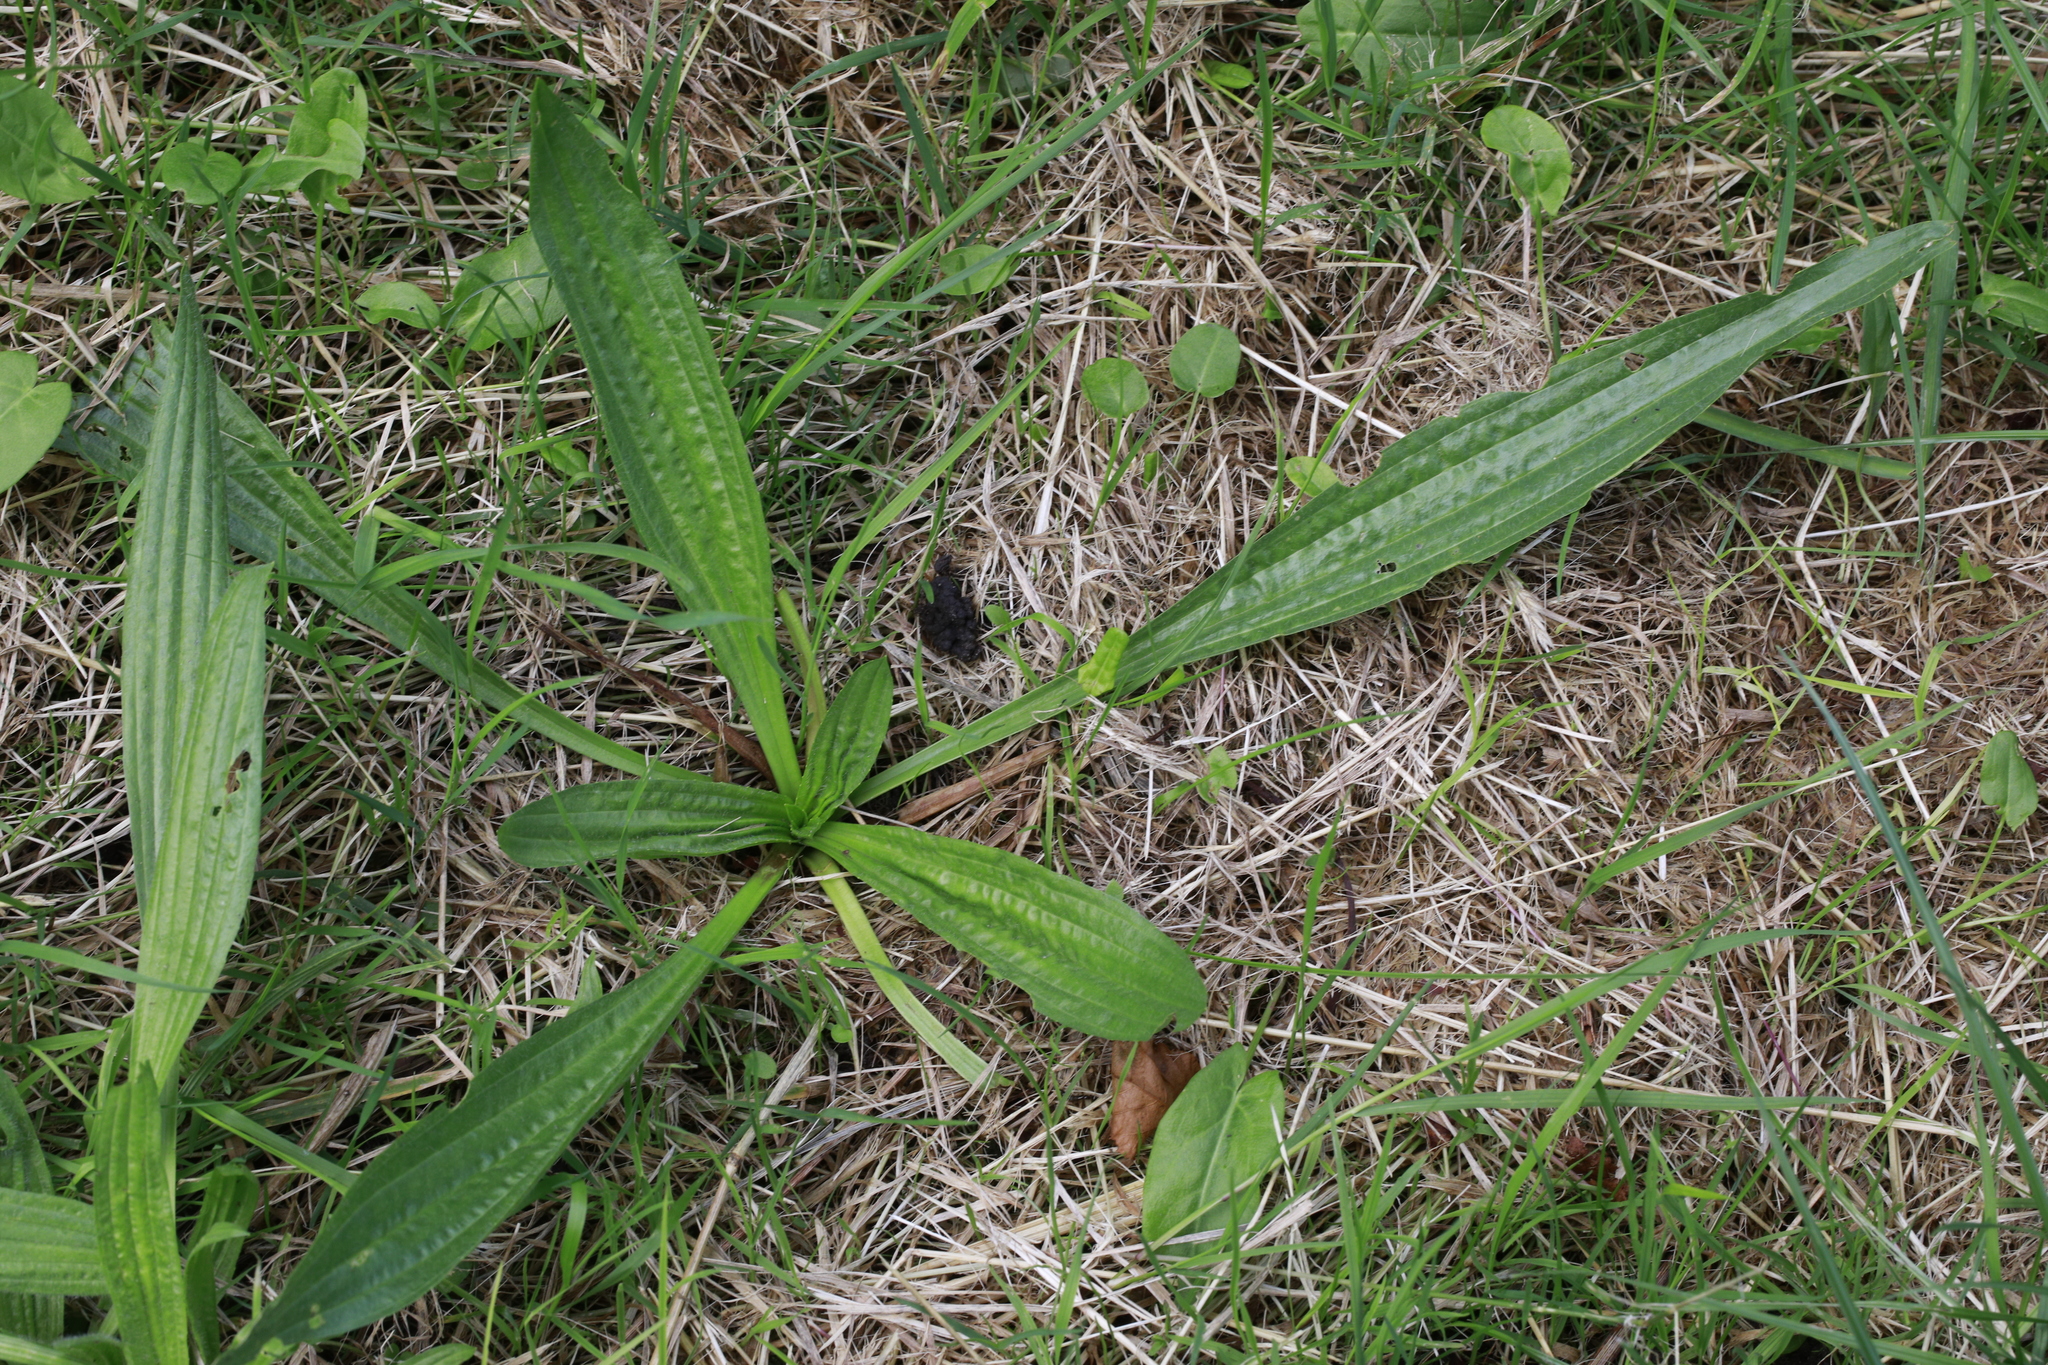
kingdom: Plantae
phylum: Tracheophyta
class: Magnoliopsida
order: Lamiales
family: Plantaginaceae
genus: Plantago
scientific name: Plantago lanceolata
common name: Ribwort plantain
